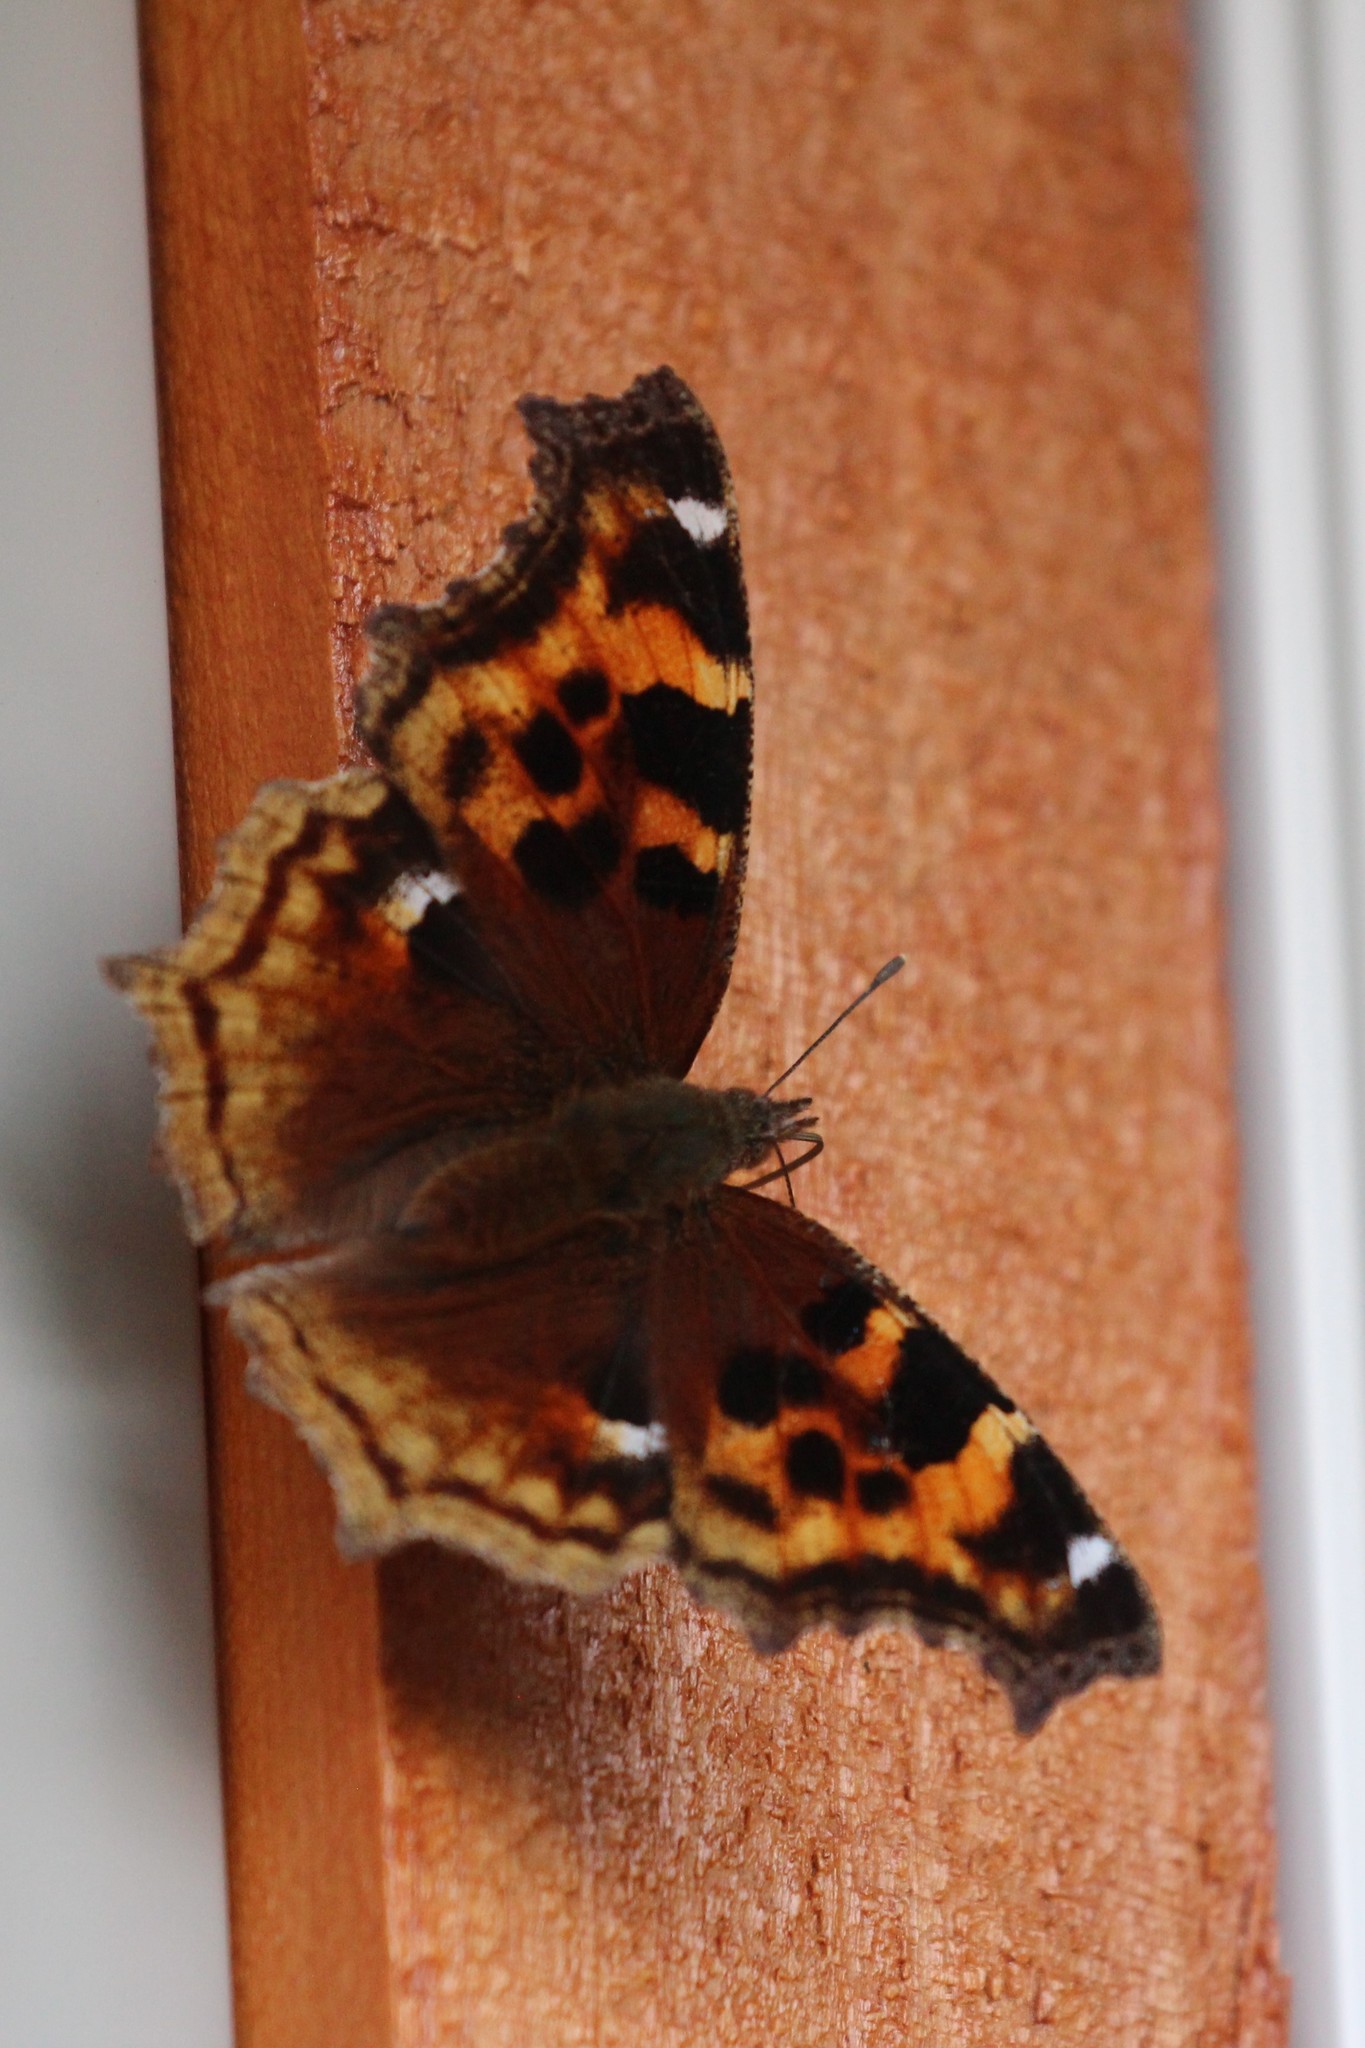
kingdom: Animalia
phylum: Arthropoda
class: Insecta
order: Lepidoptera
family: Nymphalidae
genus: Polygonia
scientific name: Polygonia vaualbum
